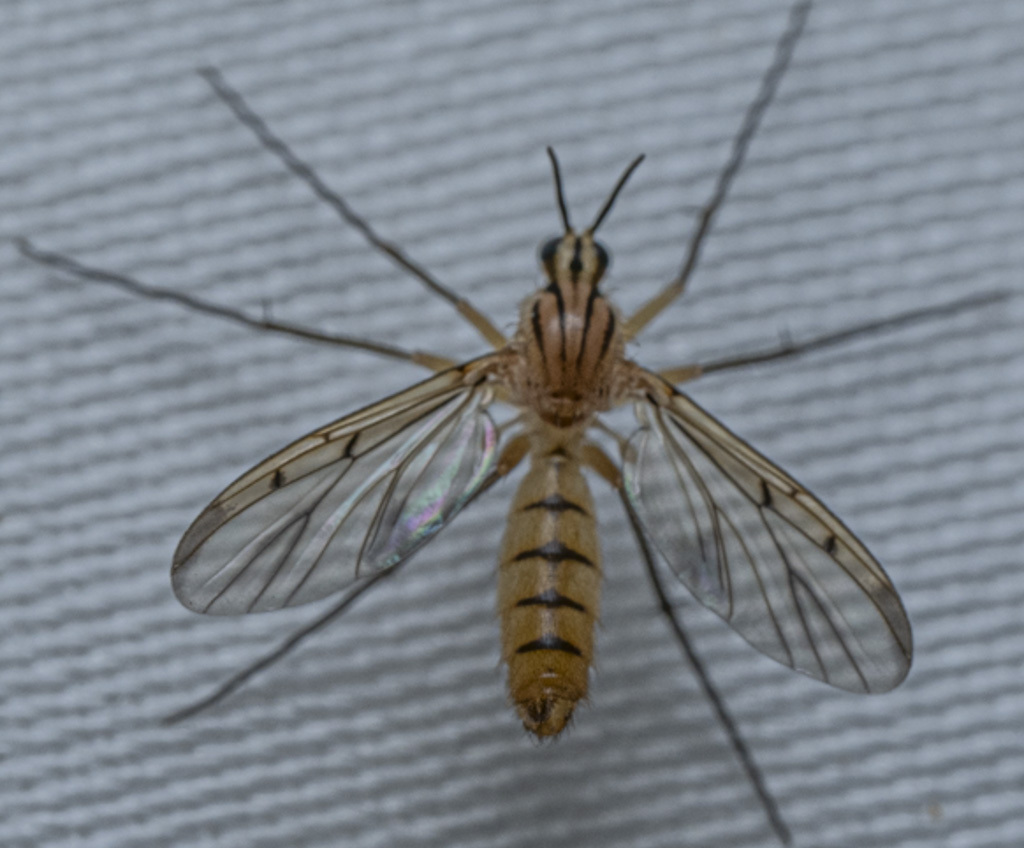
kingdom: Animalia
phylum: Arthropoda
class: Insecta
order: Diptera
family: Mycetophilidae
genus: Neoempheria
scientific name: Neoempheria balioptera
